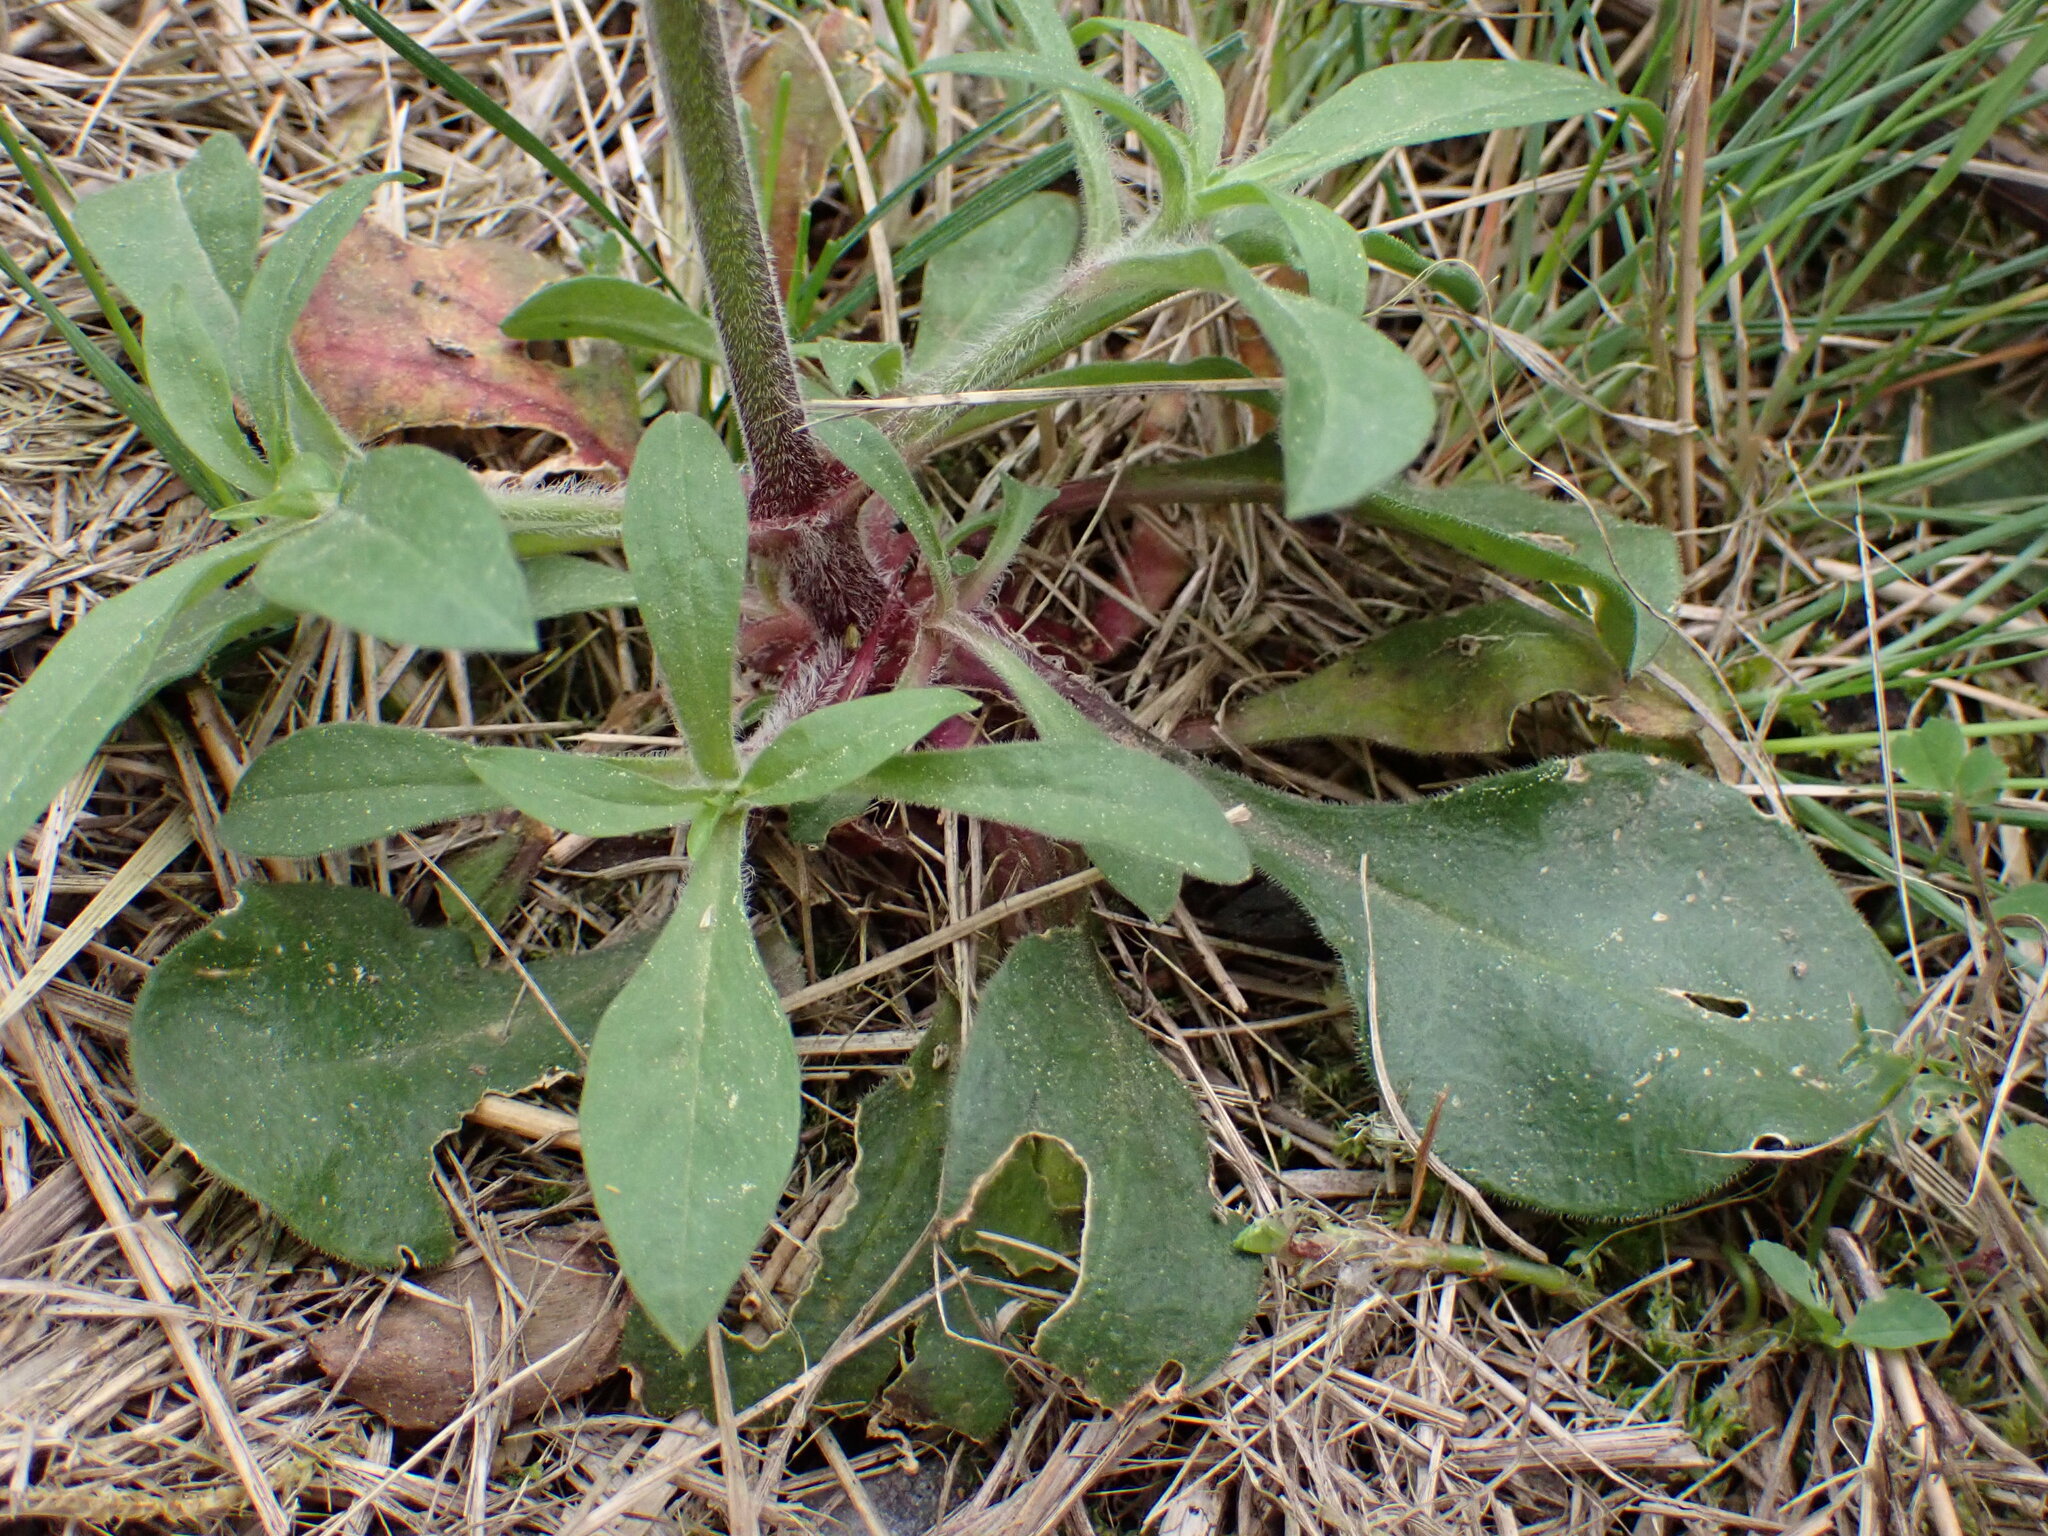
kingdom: Plantae
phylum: Tracheophyta
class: Magnoliopsida
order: Caryophyllales
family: Caryophyllaceae
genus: Silene
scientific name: Silene nemoralis
